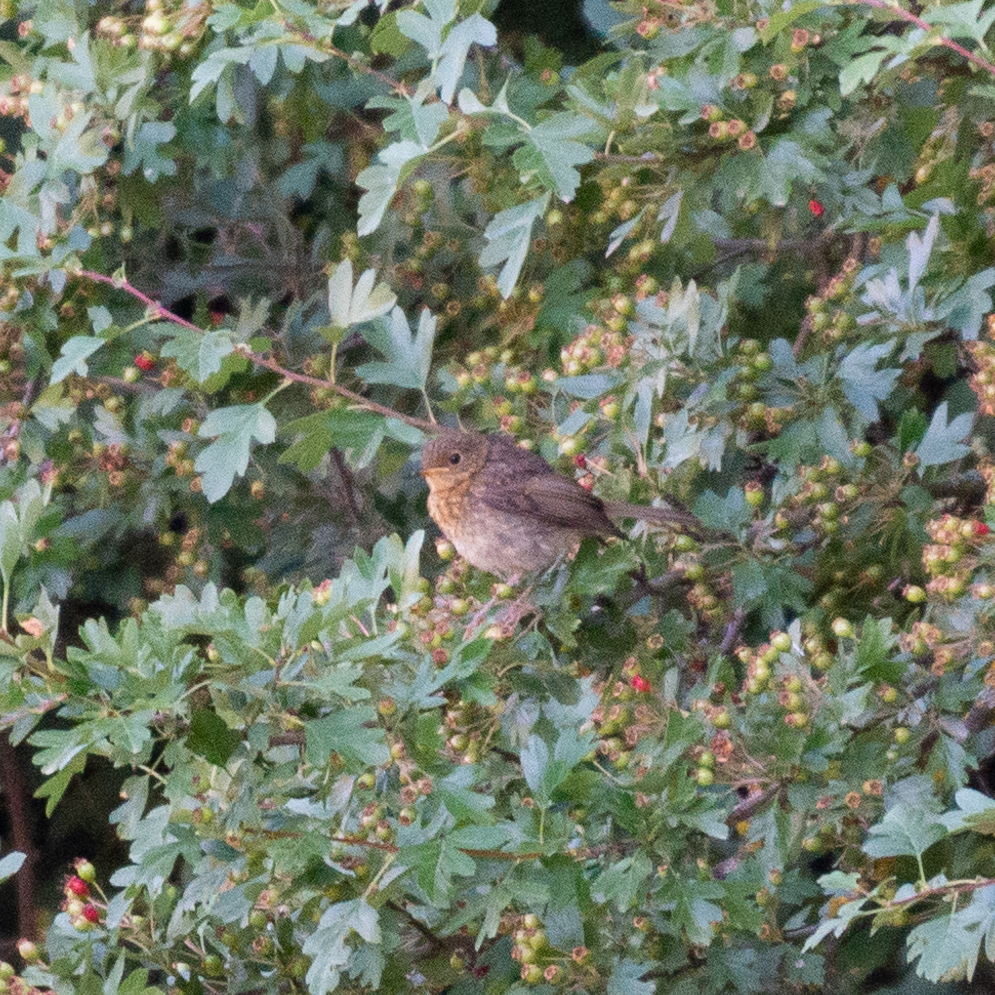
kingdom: Animalia
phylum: Chordata
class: Aves
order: Passeriformes
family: Muscicapidae
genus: Erithacus
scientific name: Erithacus rubecula
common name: European robin
